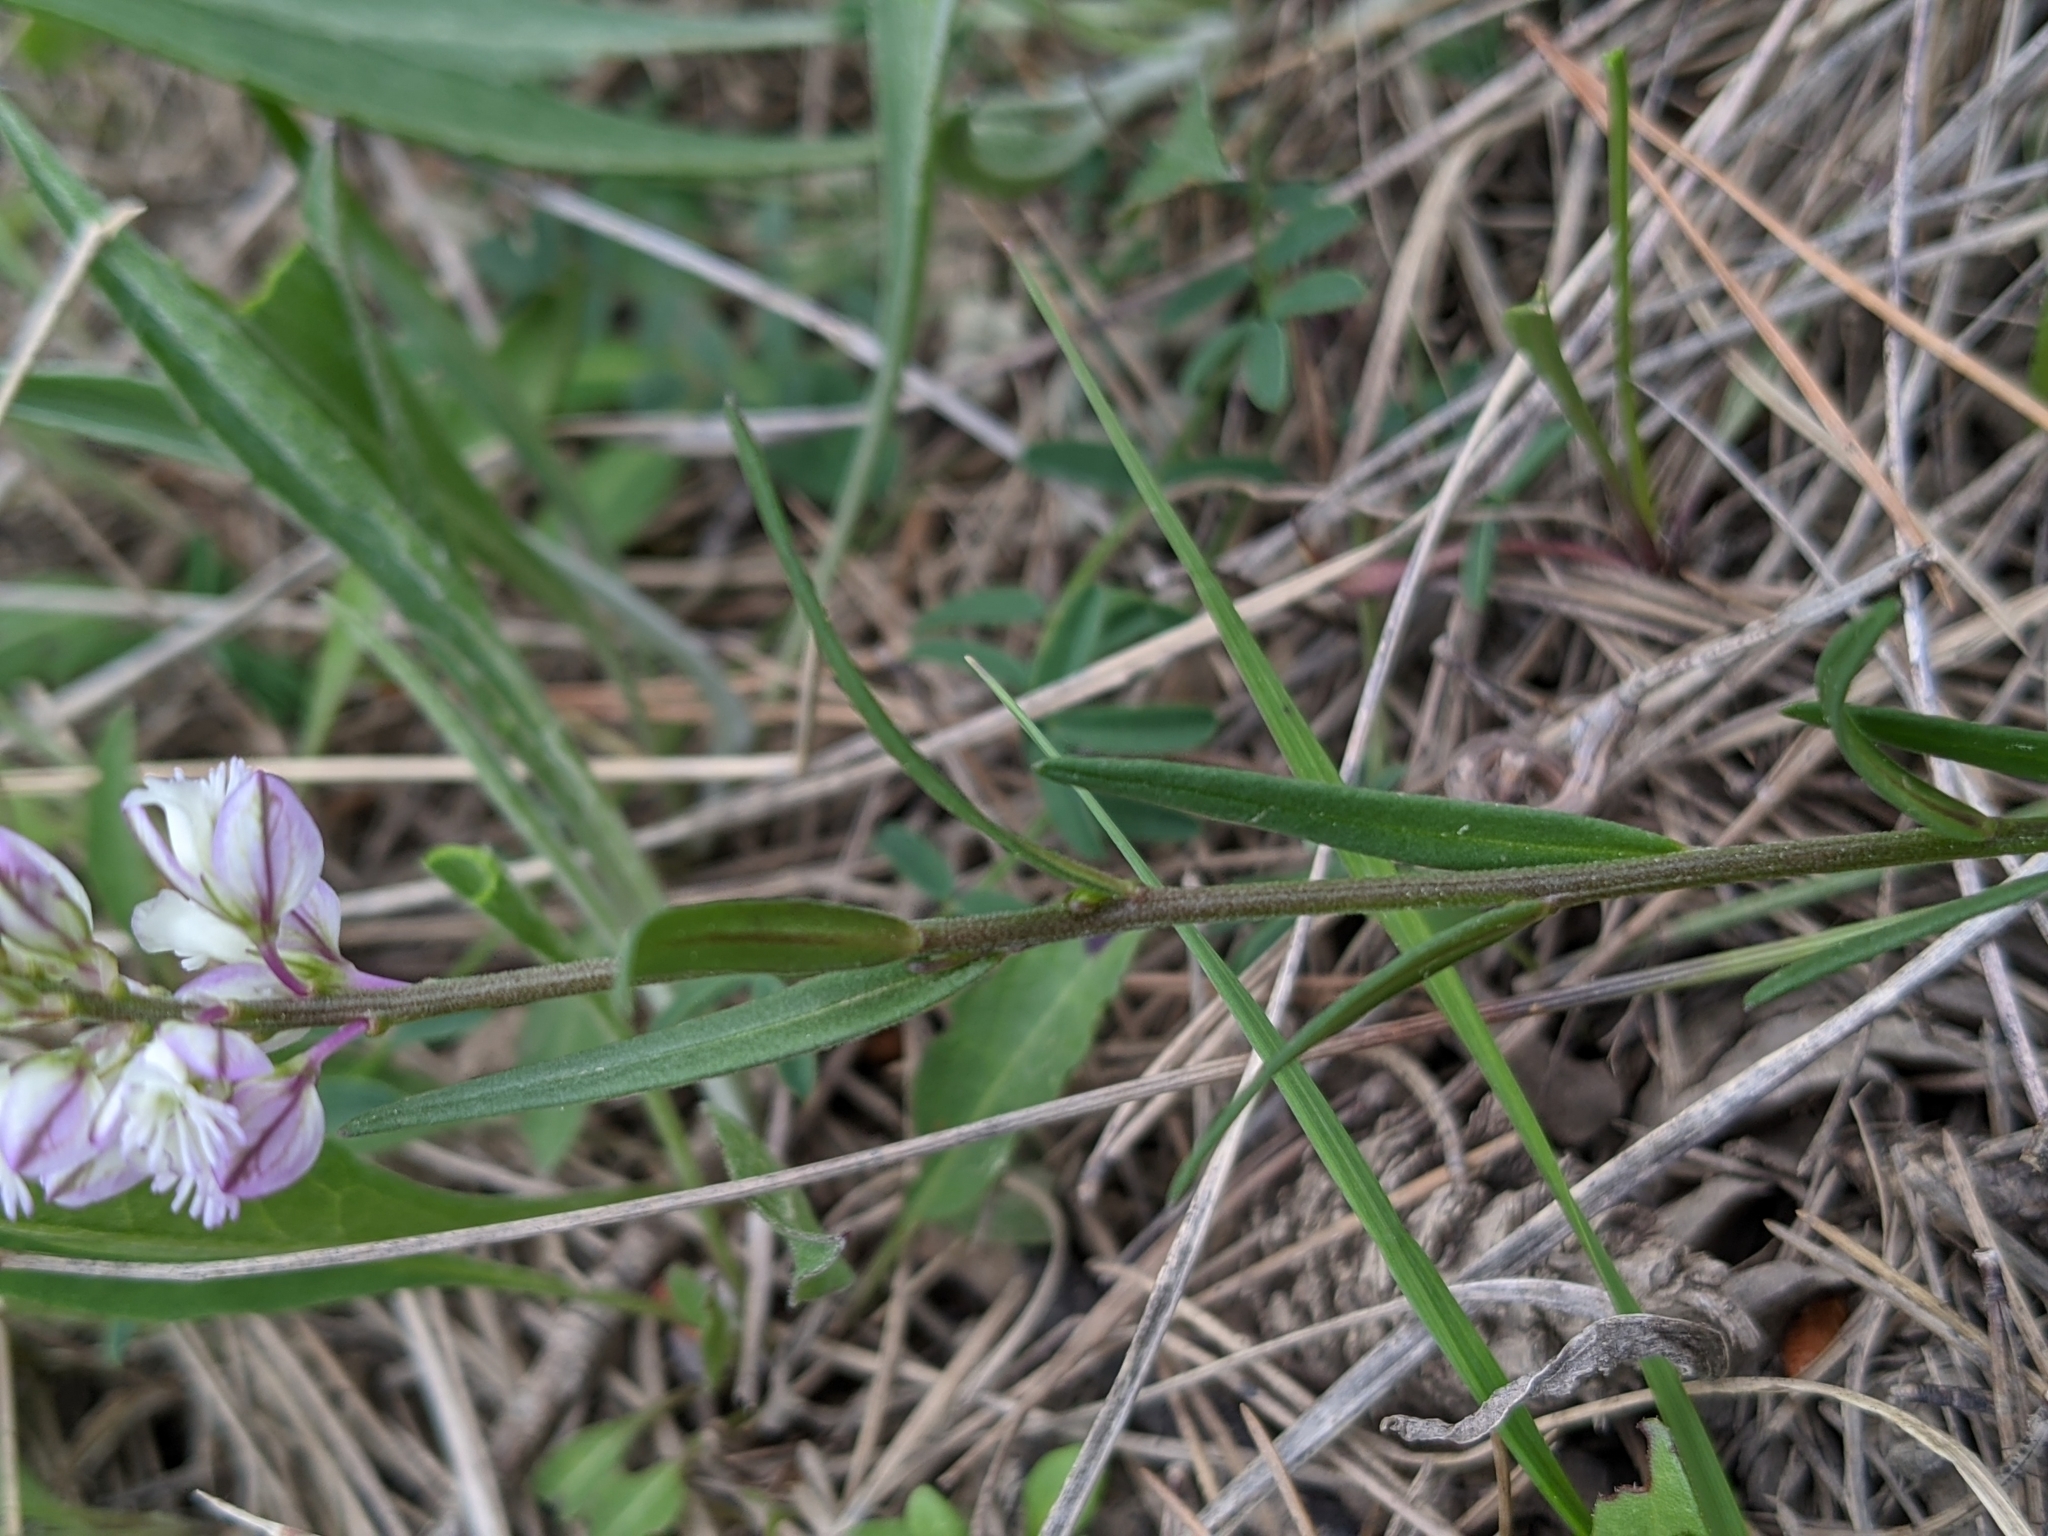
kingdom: Plantae
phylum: Tracheophyta
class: Magnoliopsida
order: Fabales
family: Polygalaceae
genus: Polygala
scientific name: Polygala vulgaris
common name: Common milkwort
